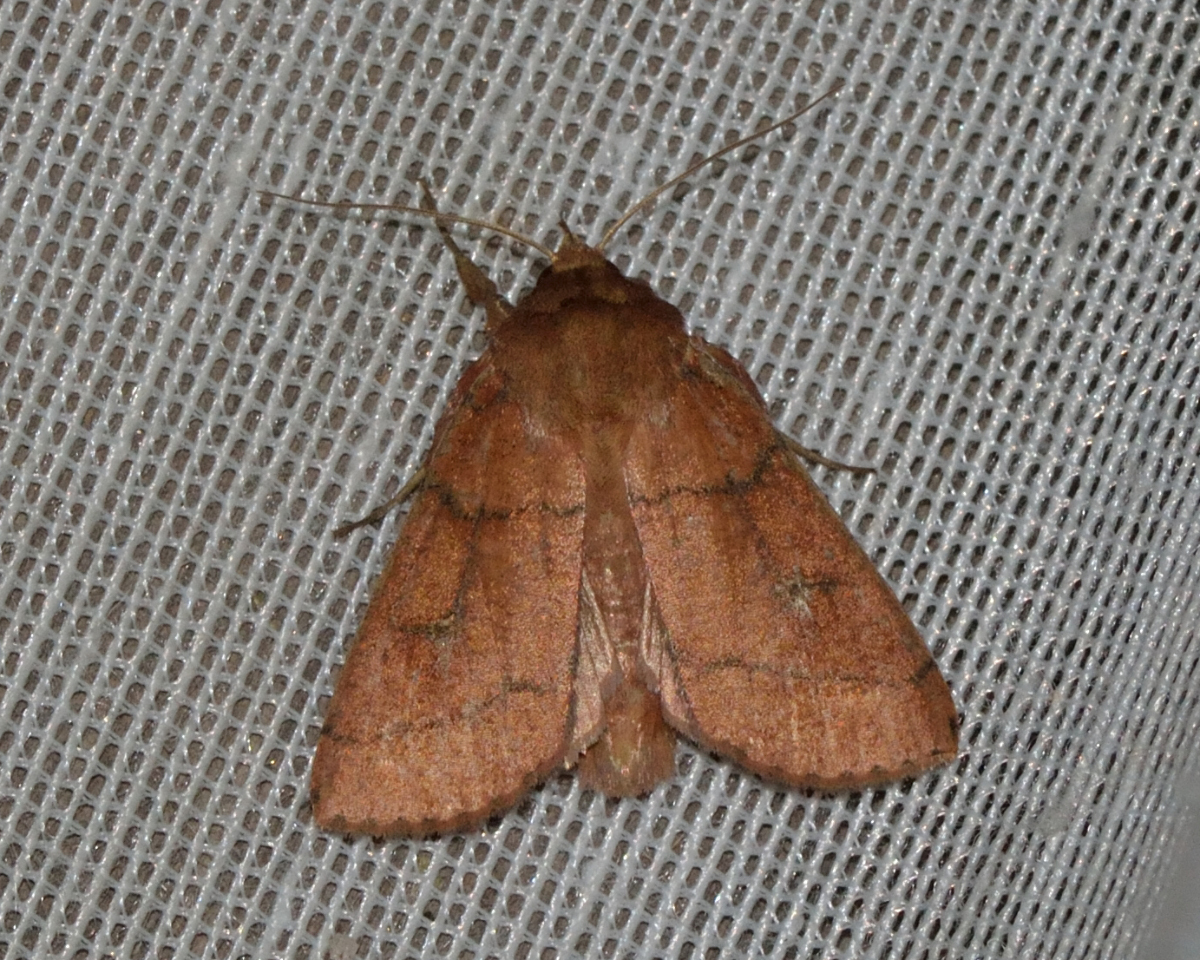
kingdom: Animalia
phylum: Arthropoda
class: Insecta
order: Lepidoptera
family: Noctuidae
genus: Mythimna
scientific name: Mythimna turca
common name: Double line
